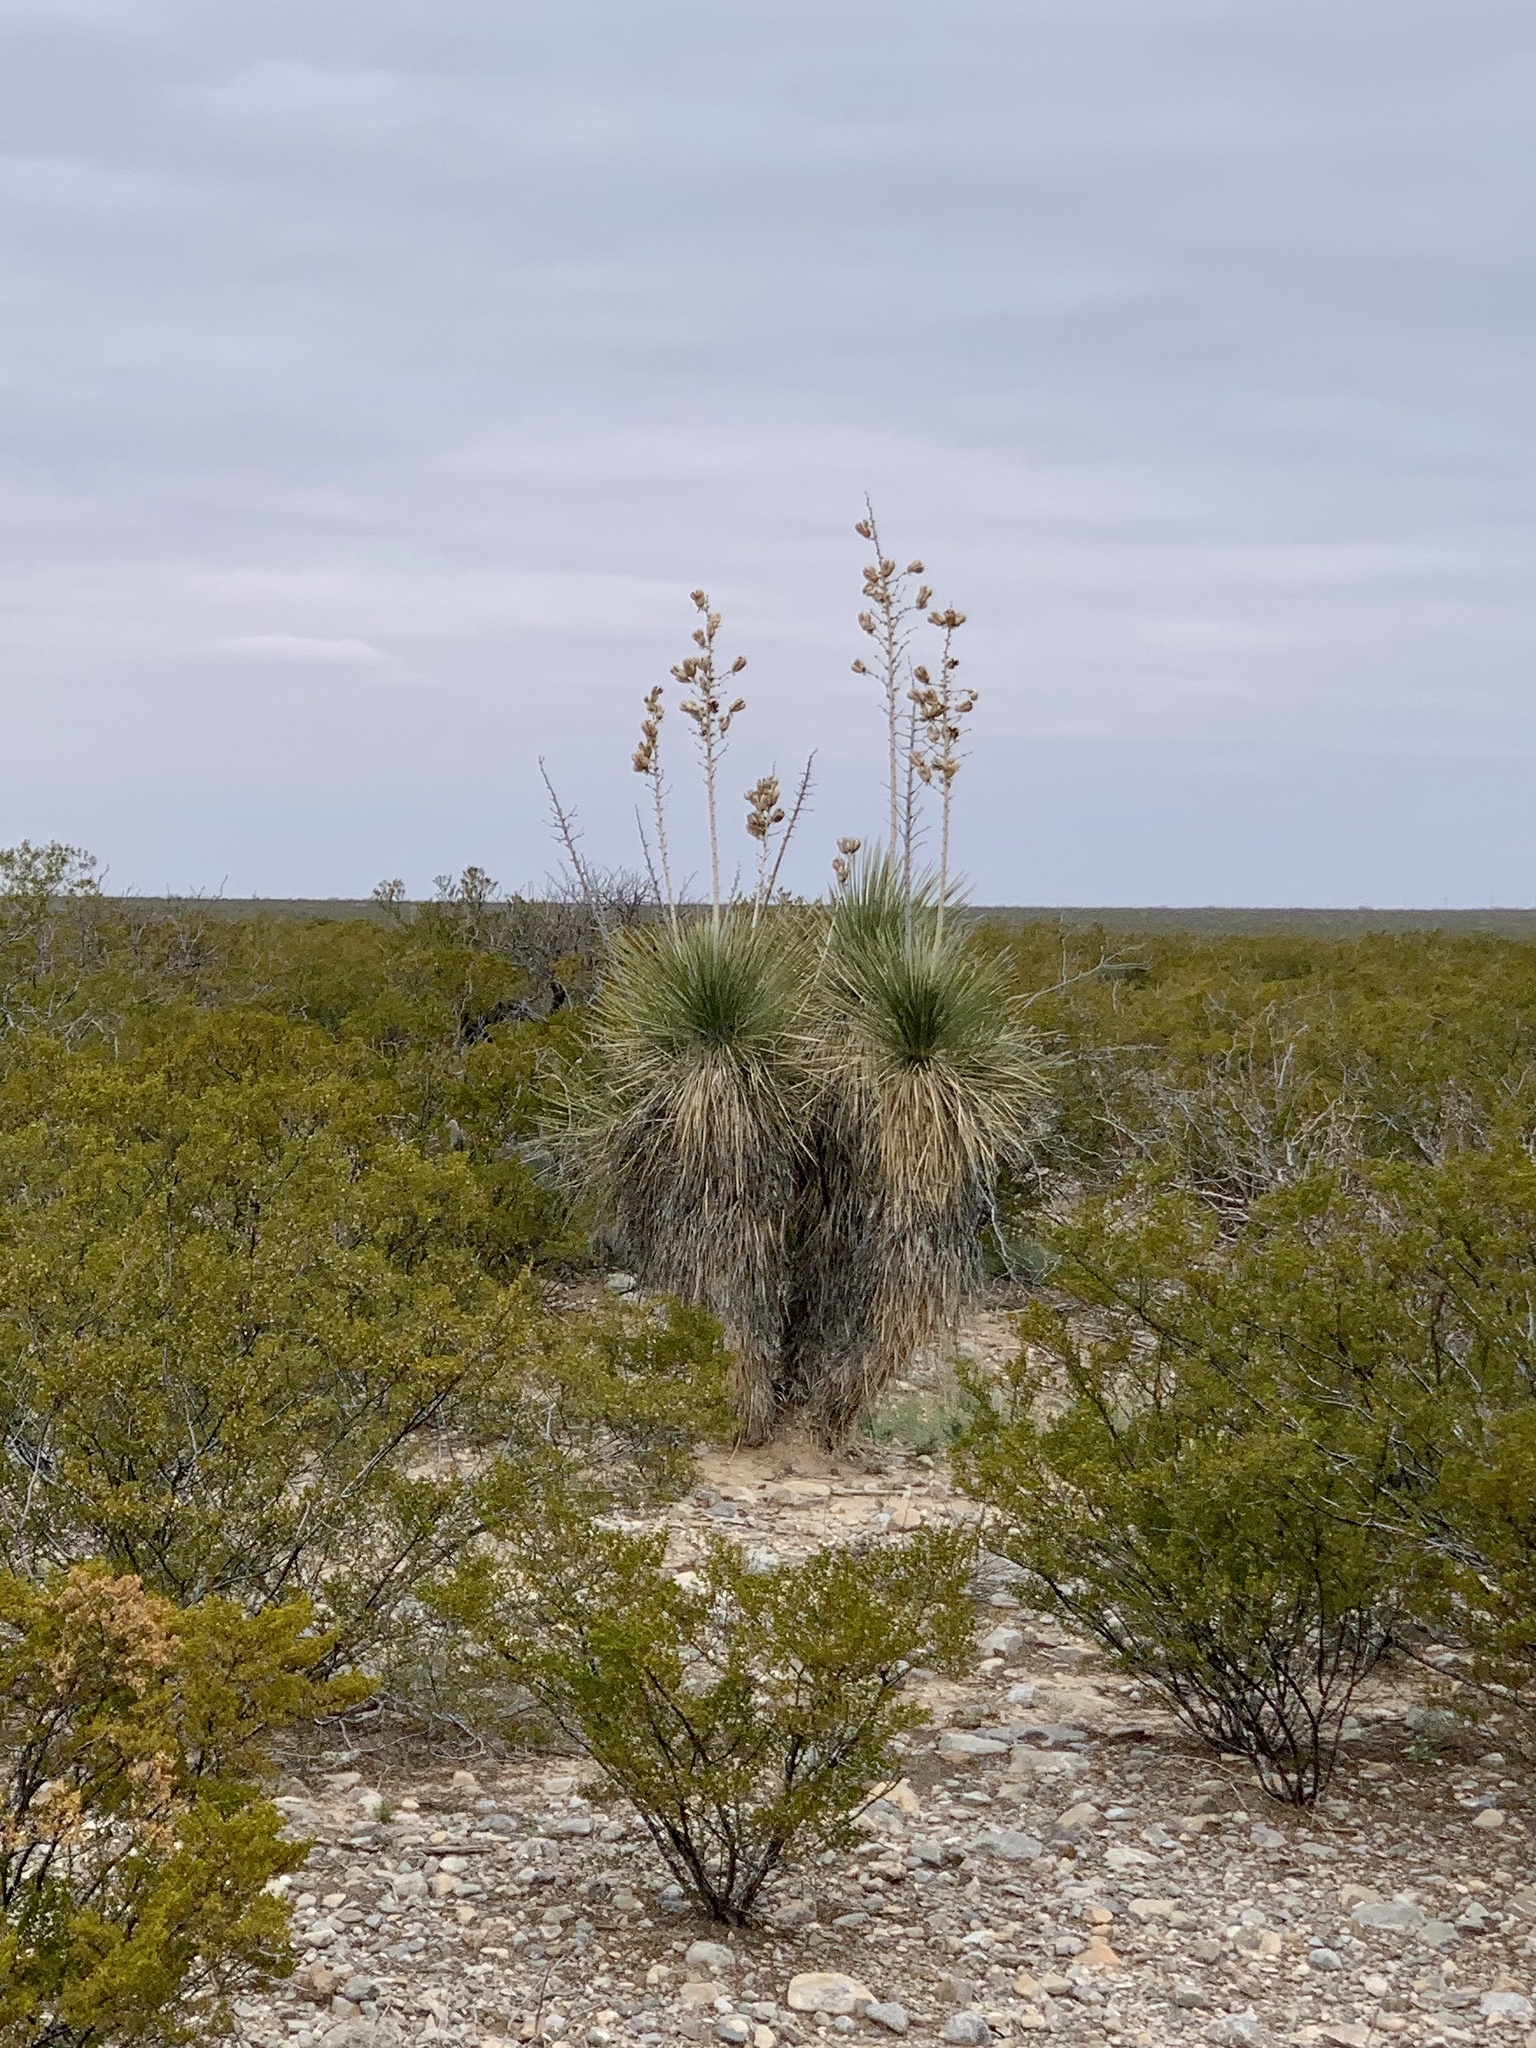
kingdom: Plantae
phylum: Tracheophyta
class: Liliopsida
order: Asparagales
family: Asparagaceae
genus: Yucca
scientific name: Yucca elata
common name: Palmella
